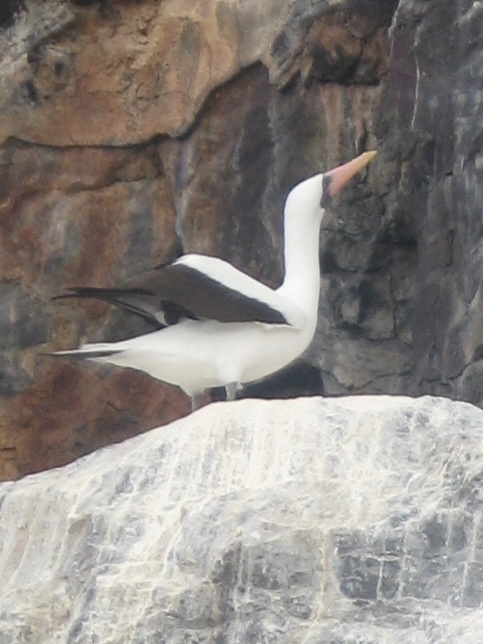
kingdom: Animalia
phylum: Chordata
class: Aves
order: Suliformes
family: Sulidae
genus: Sula
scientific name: Sula granti
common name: Nazca booby
